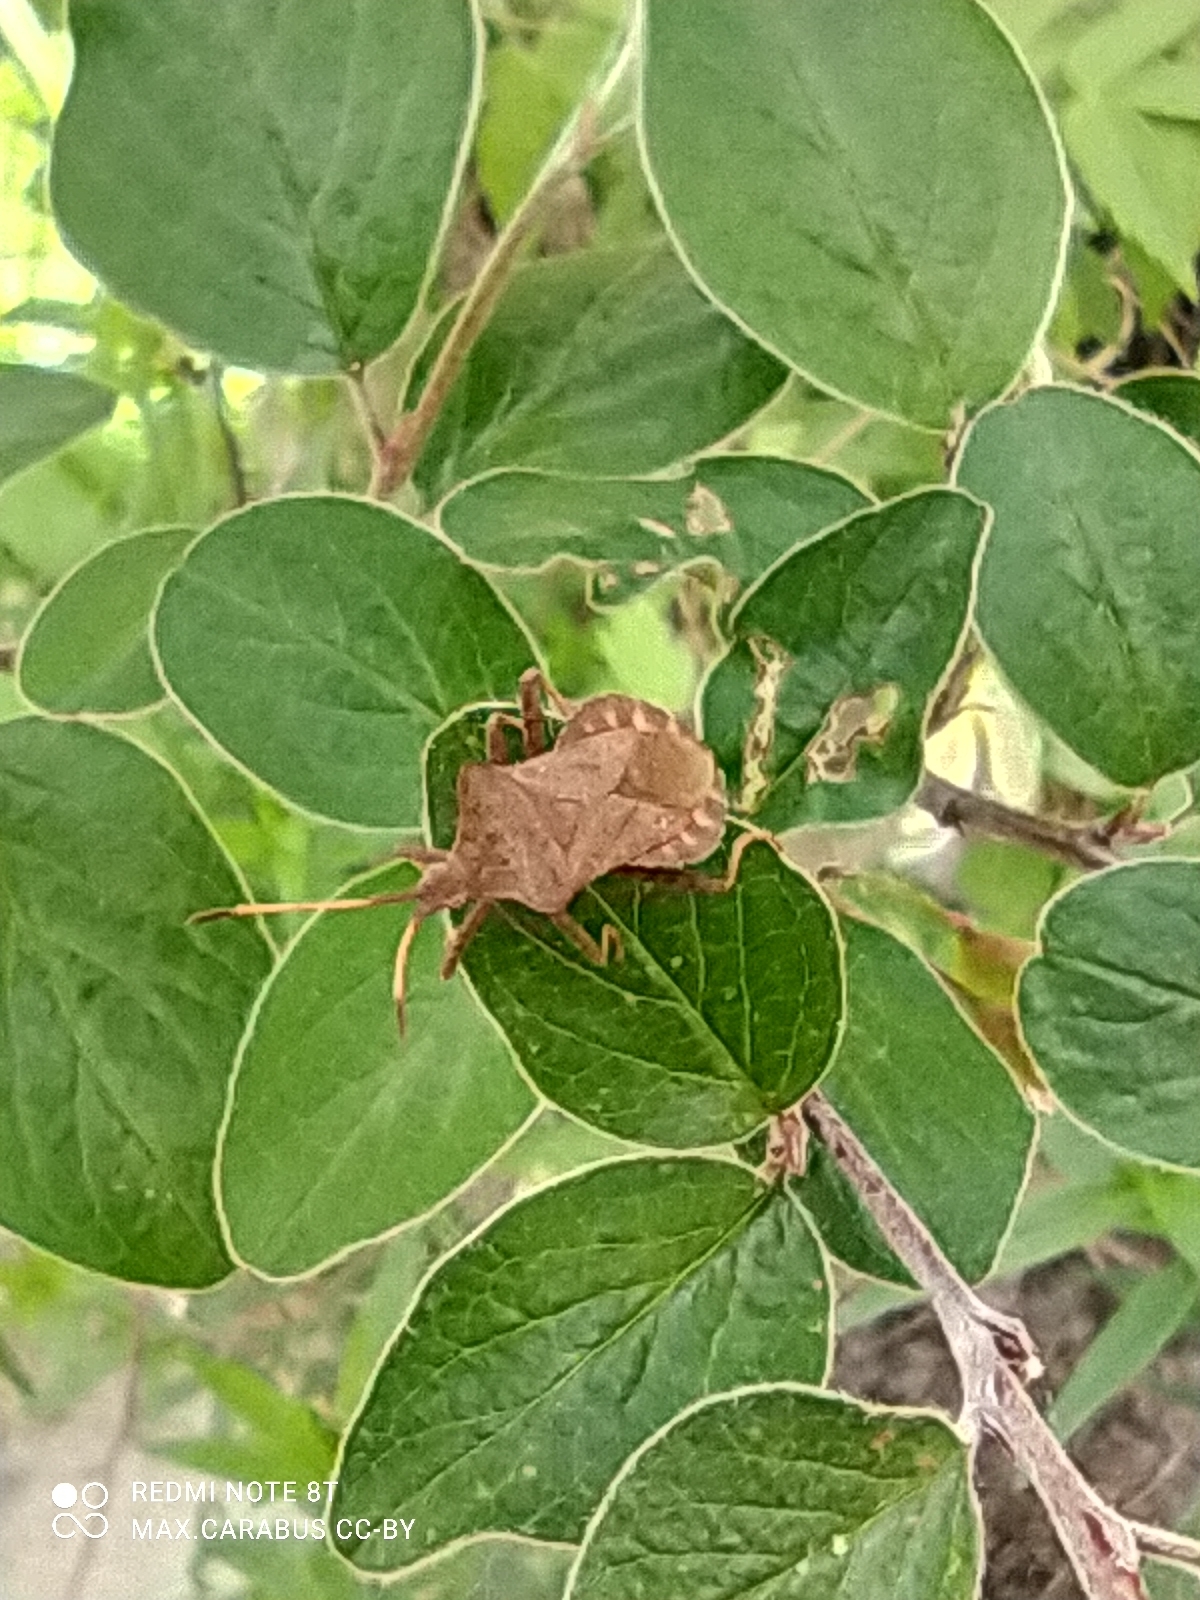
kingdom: Animalia
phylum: Arthropoda
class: Insecta
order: Hemiptera
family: Coreidae
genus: Coreus
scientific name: Coreus marginatus
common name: Dock bug
